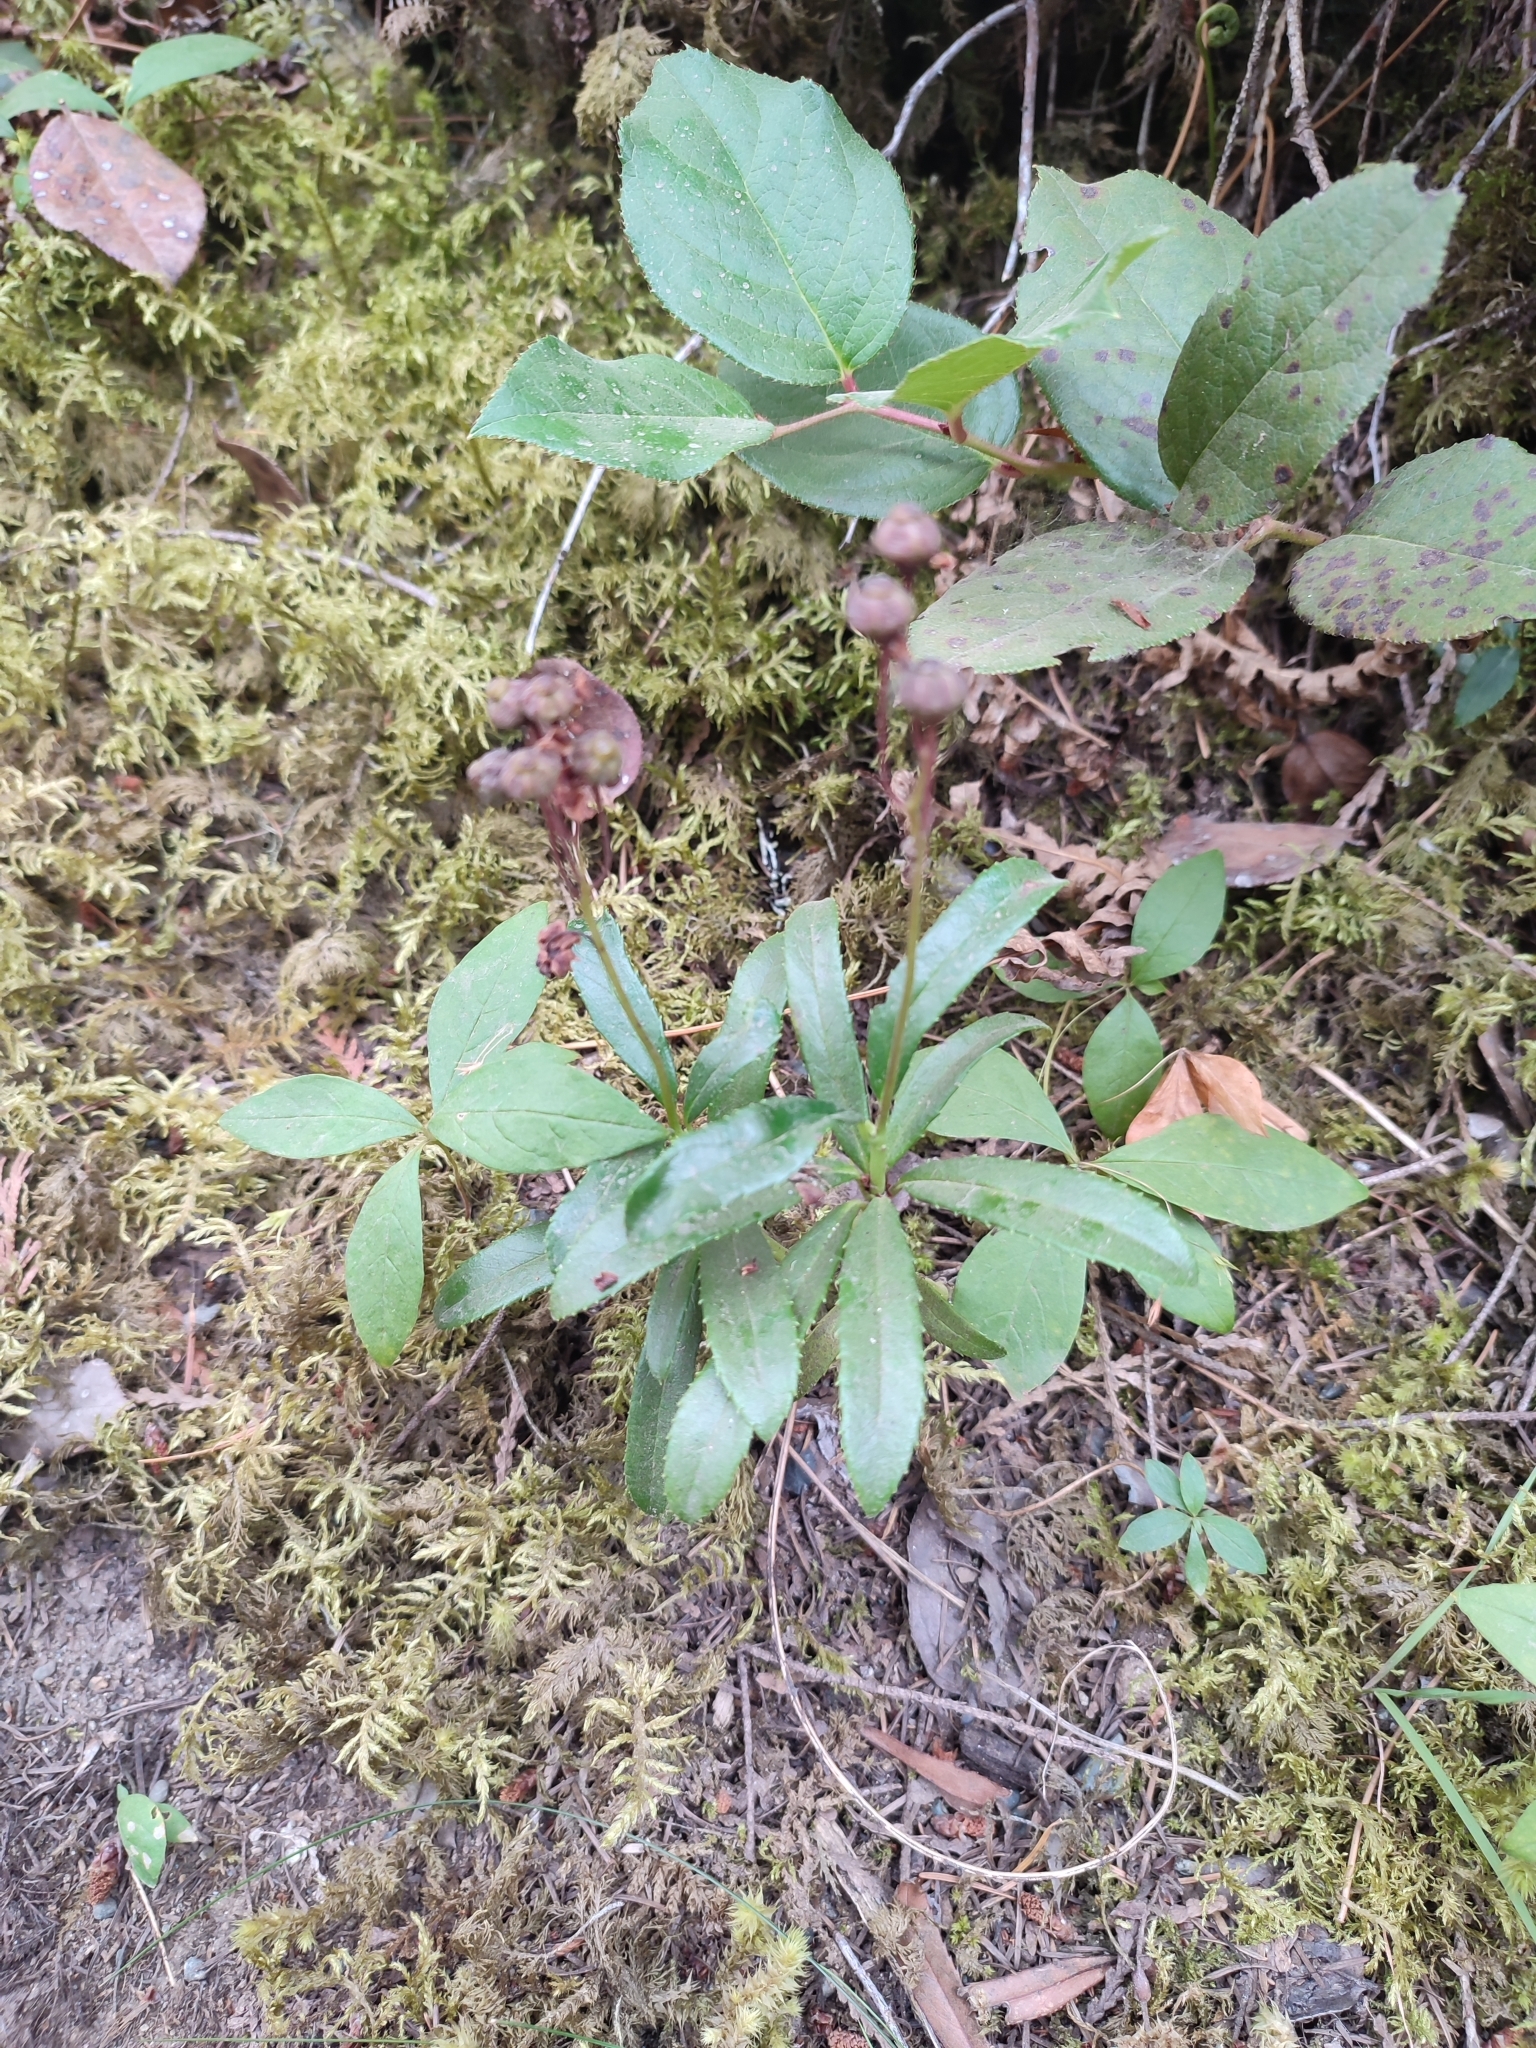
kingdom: Plantae
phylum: Tracheophyta
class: Magnoliopsida
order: Ericales
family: Ericaceae
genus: Chimaphila
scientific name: Chimaphila umbellata
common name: Pipsissewa
